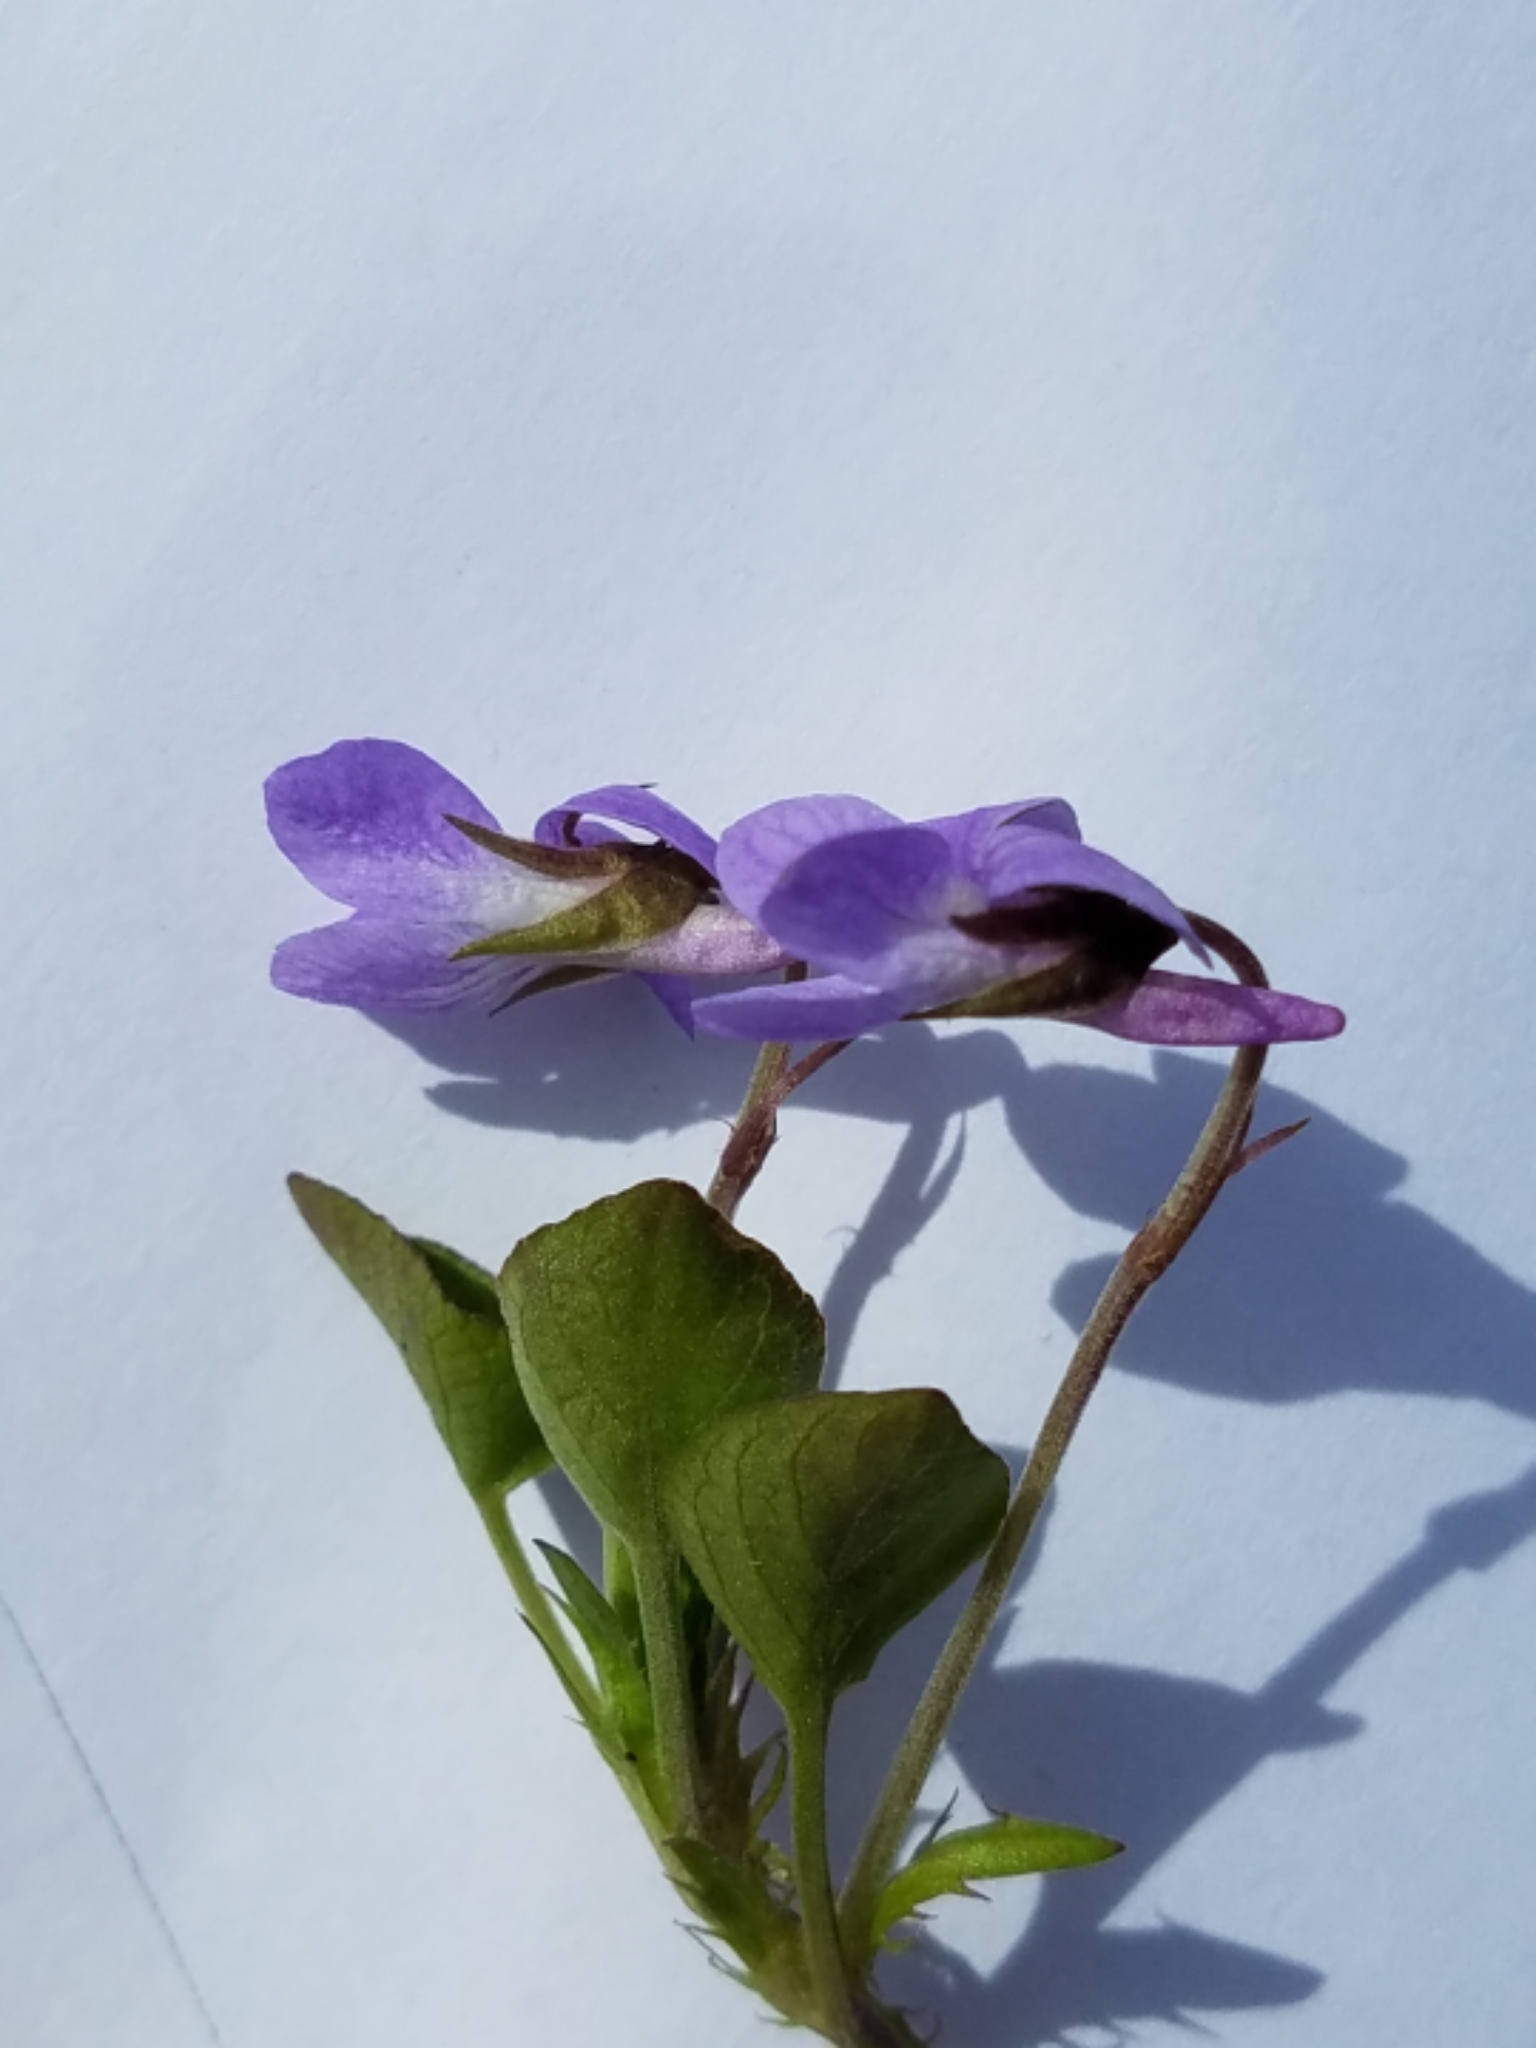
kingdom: Plantae
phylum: Tracheophyta
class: Magnoliopsida
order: Malpighiales
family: Violaceae
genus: Viola
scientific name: Viola adunca
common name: Sand violet
